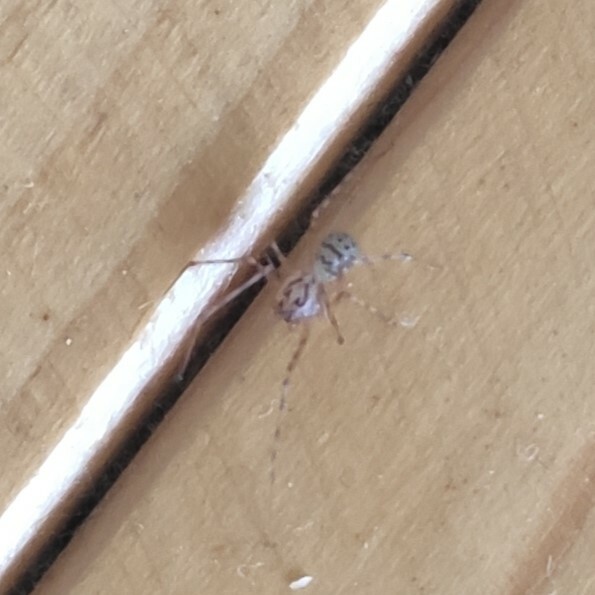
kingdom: Animalia
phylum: Arthropoda
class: Arachnida
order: Araneae
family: Scytodidae
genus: Scytodes
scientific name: Scytodes thoracica
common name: Spitting spider
